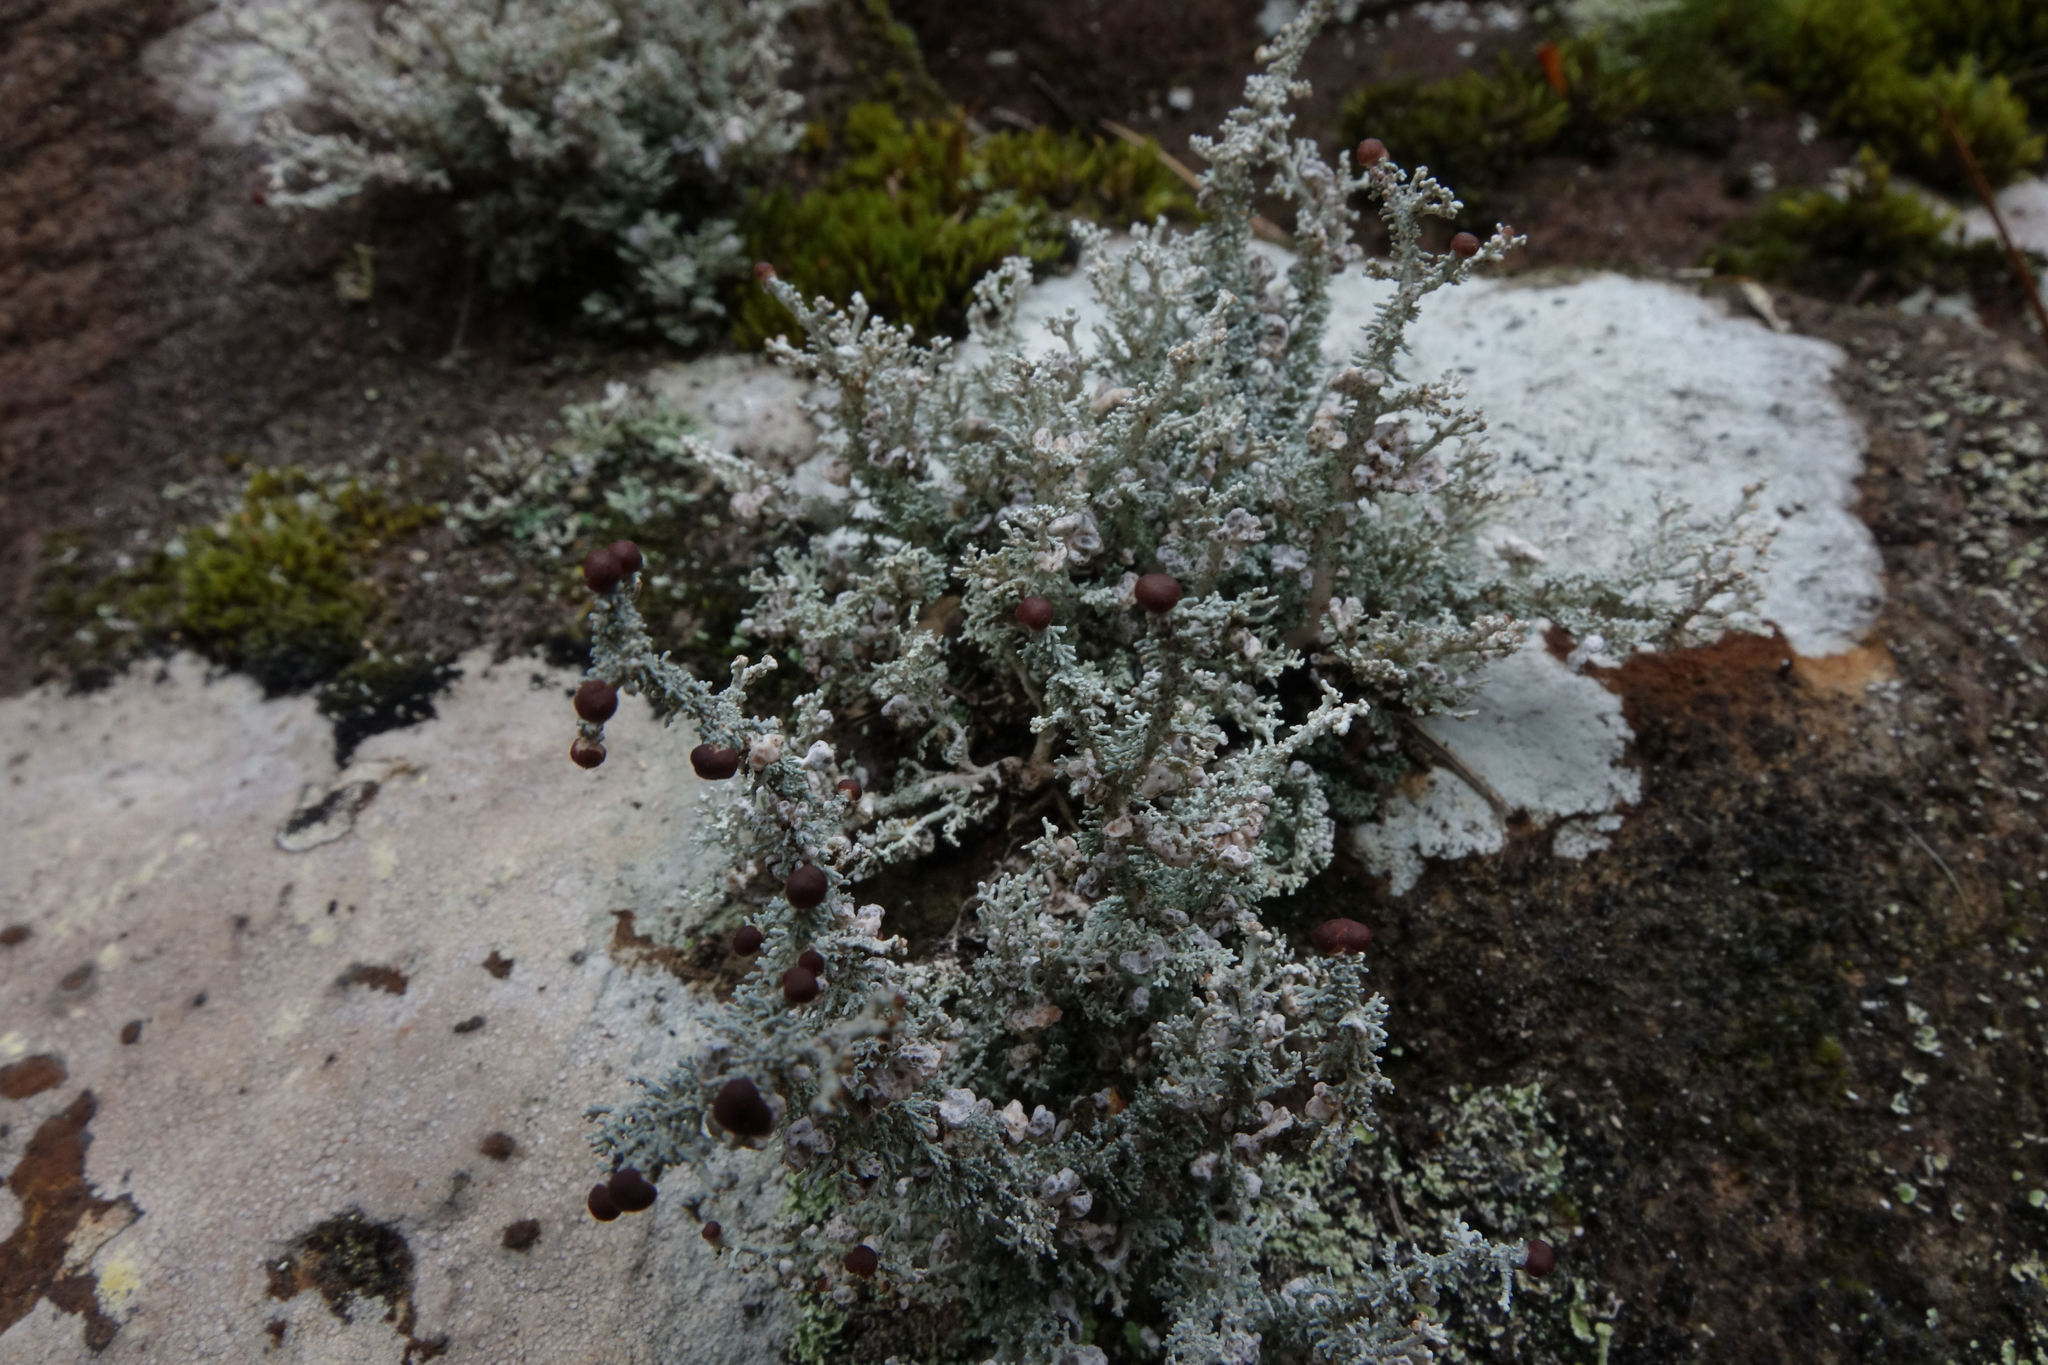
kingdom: Fungi
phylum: Ascomycota
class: Lecanoromycetes
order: Lecanorales
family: Stereocaulaceae
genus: Stereocaulon
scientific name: Stereocaulon ramulosum
